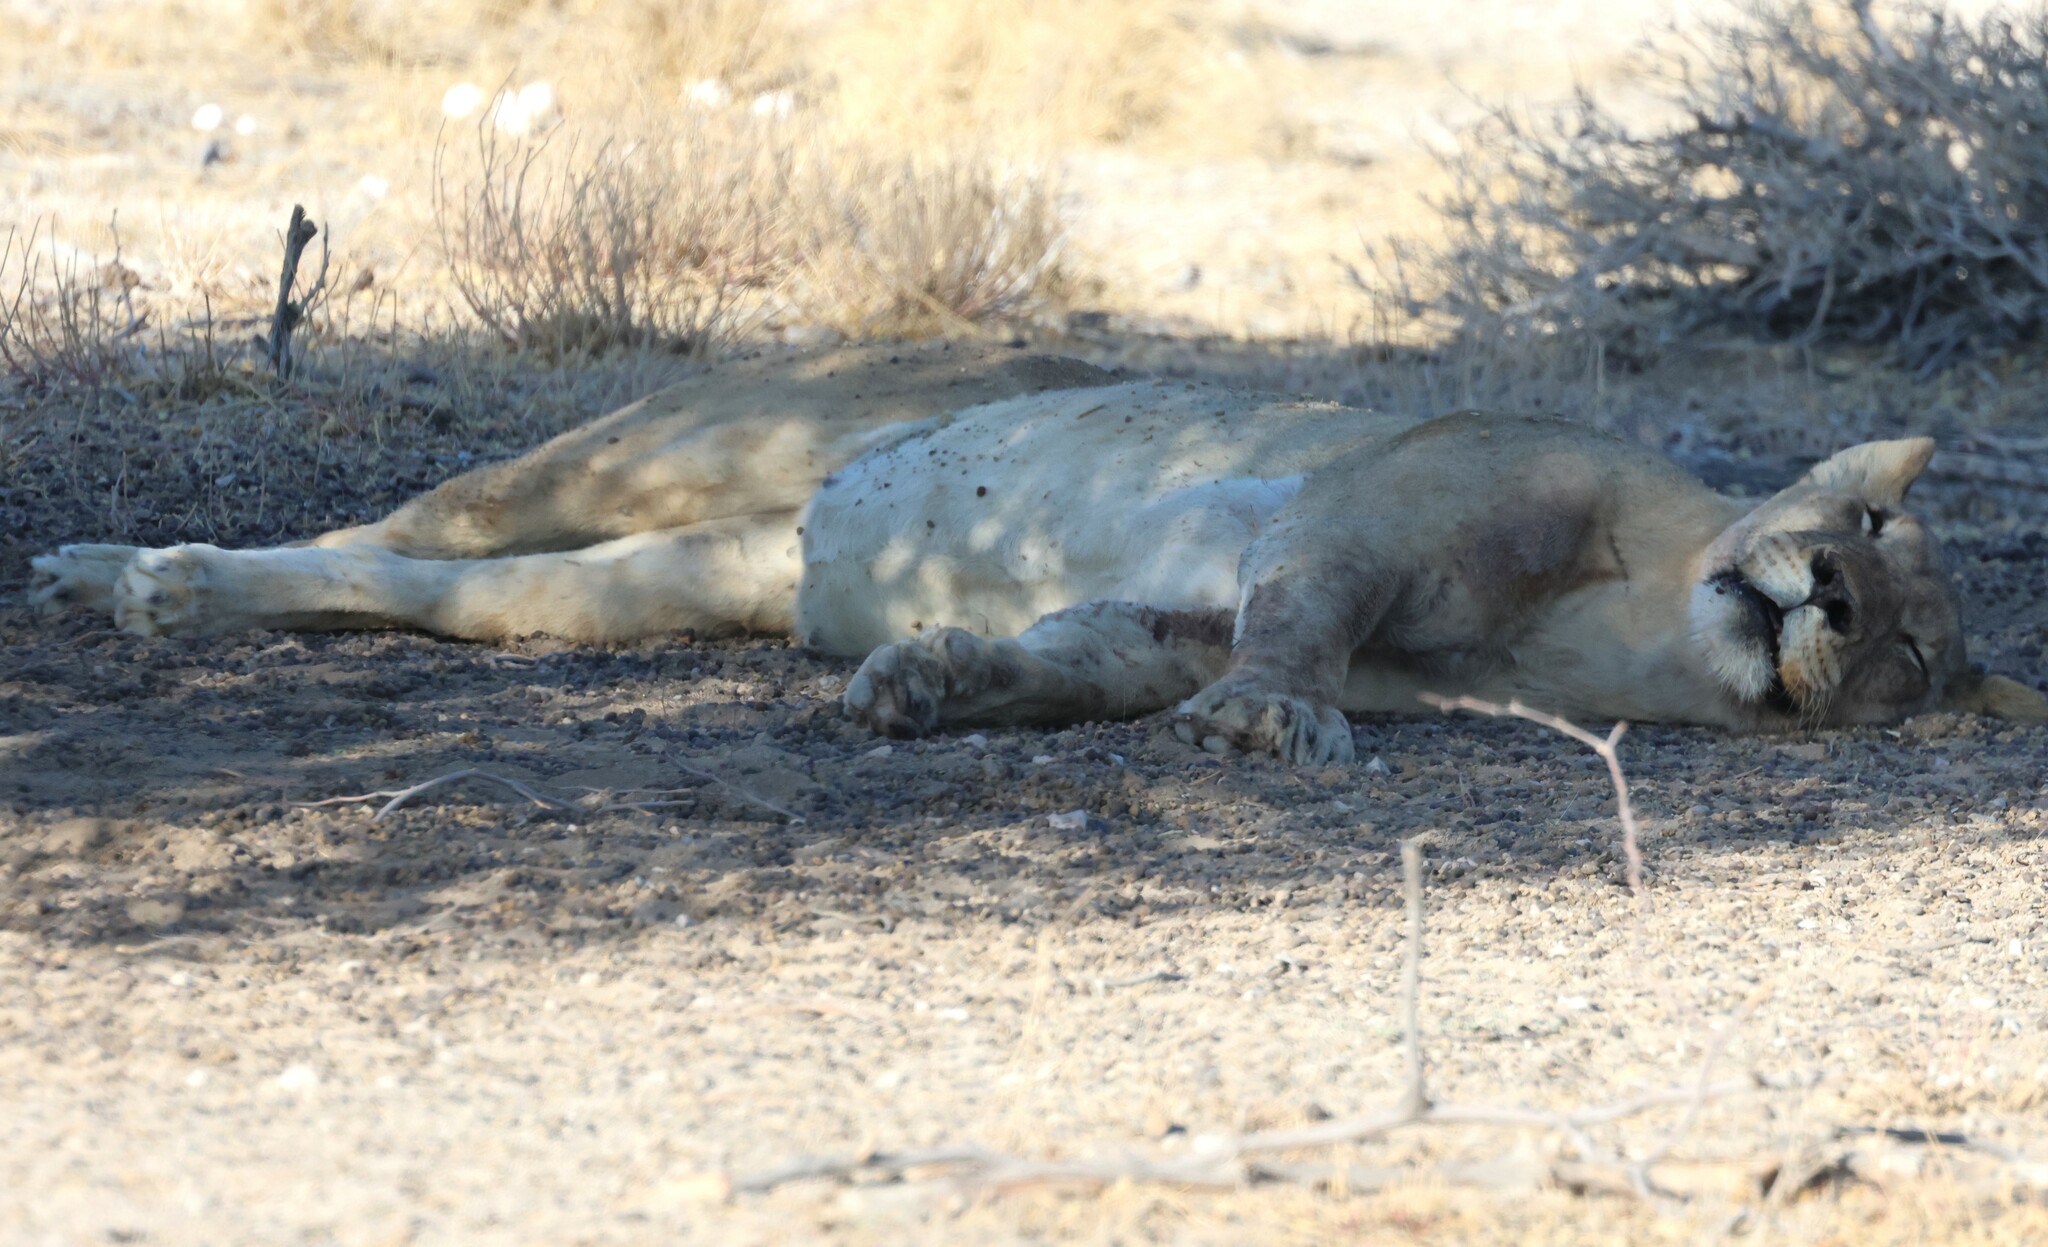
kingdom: Animalia
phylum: Chordata
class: Mammalia
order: Carnivora
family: Felidae
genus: Panthera
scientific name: Panthera leo
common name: Lion
